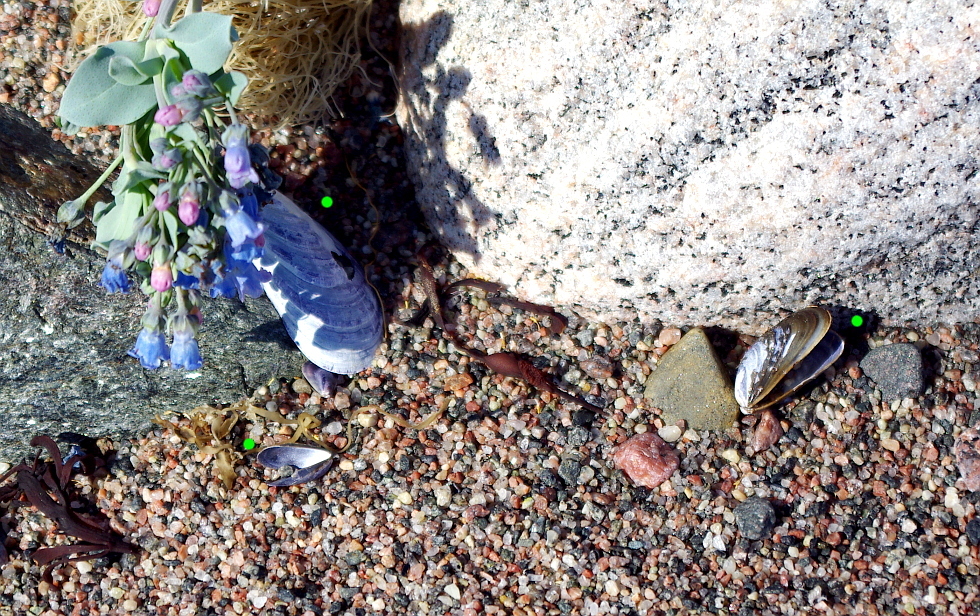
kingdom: Animalia
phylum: Mollusca
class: Bivalvia
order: Mytilida
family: Mytilidae
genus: Mytilus
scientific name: Mytilus edulis
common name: Blue mussel
